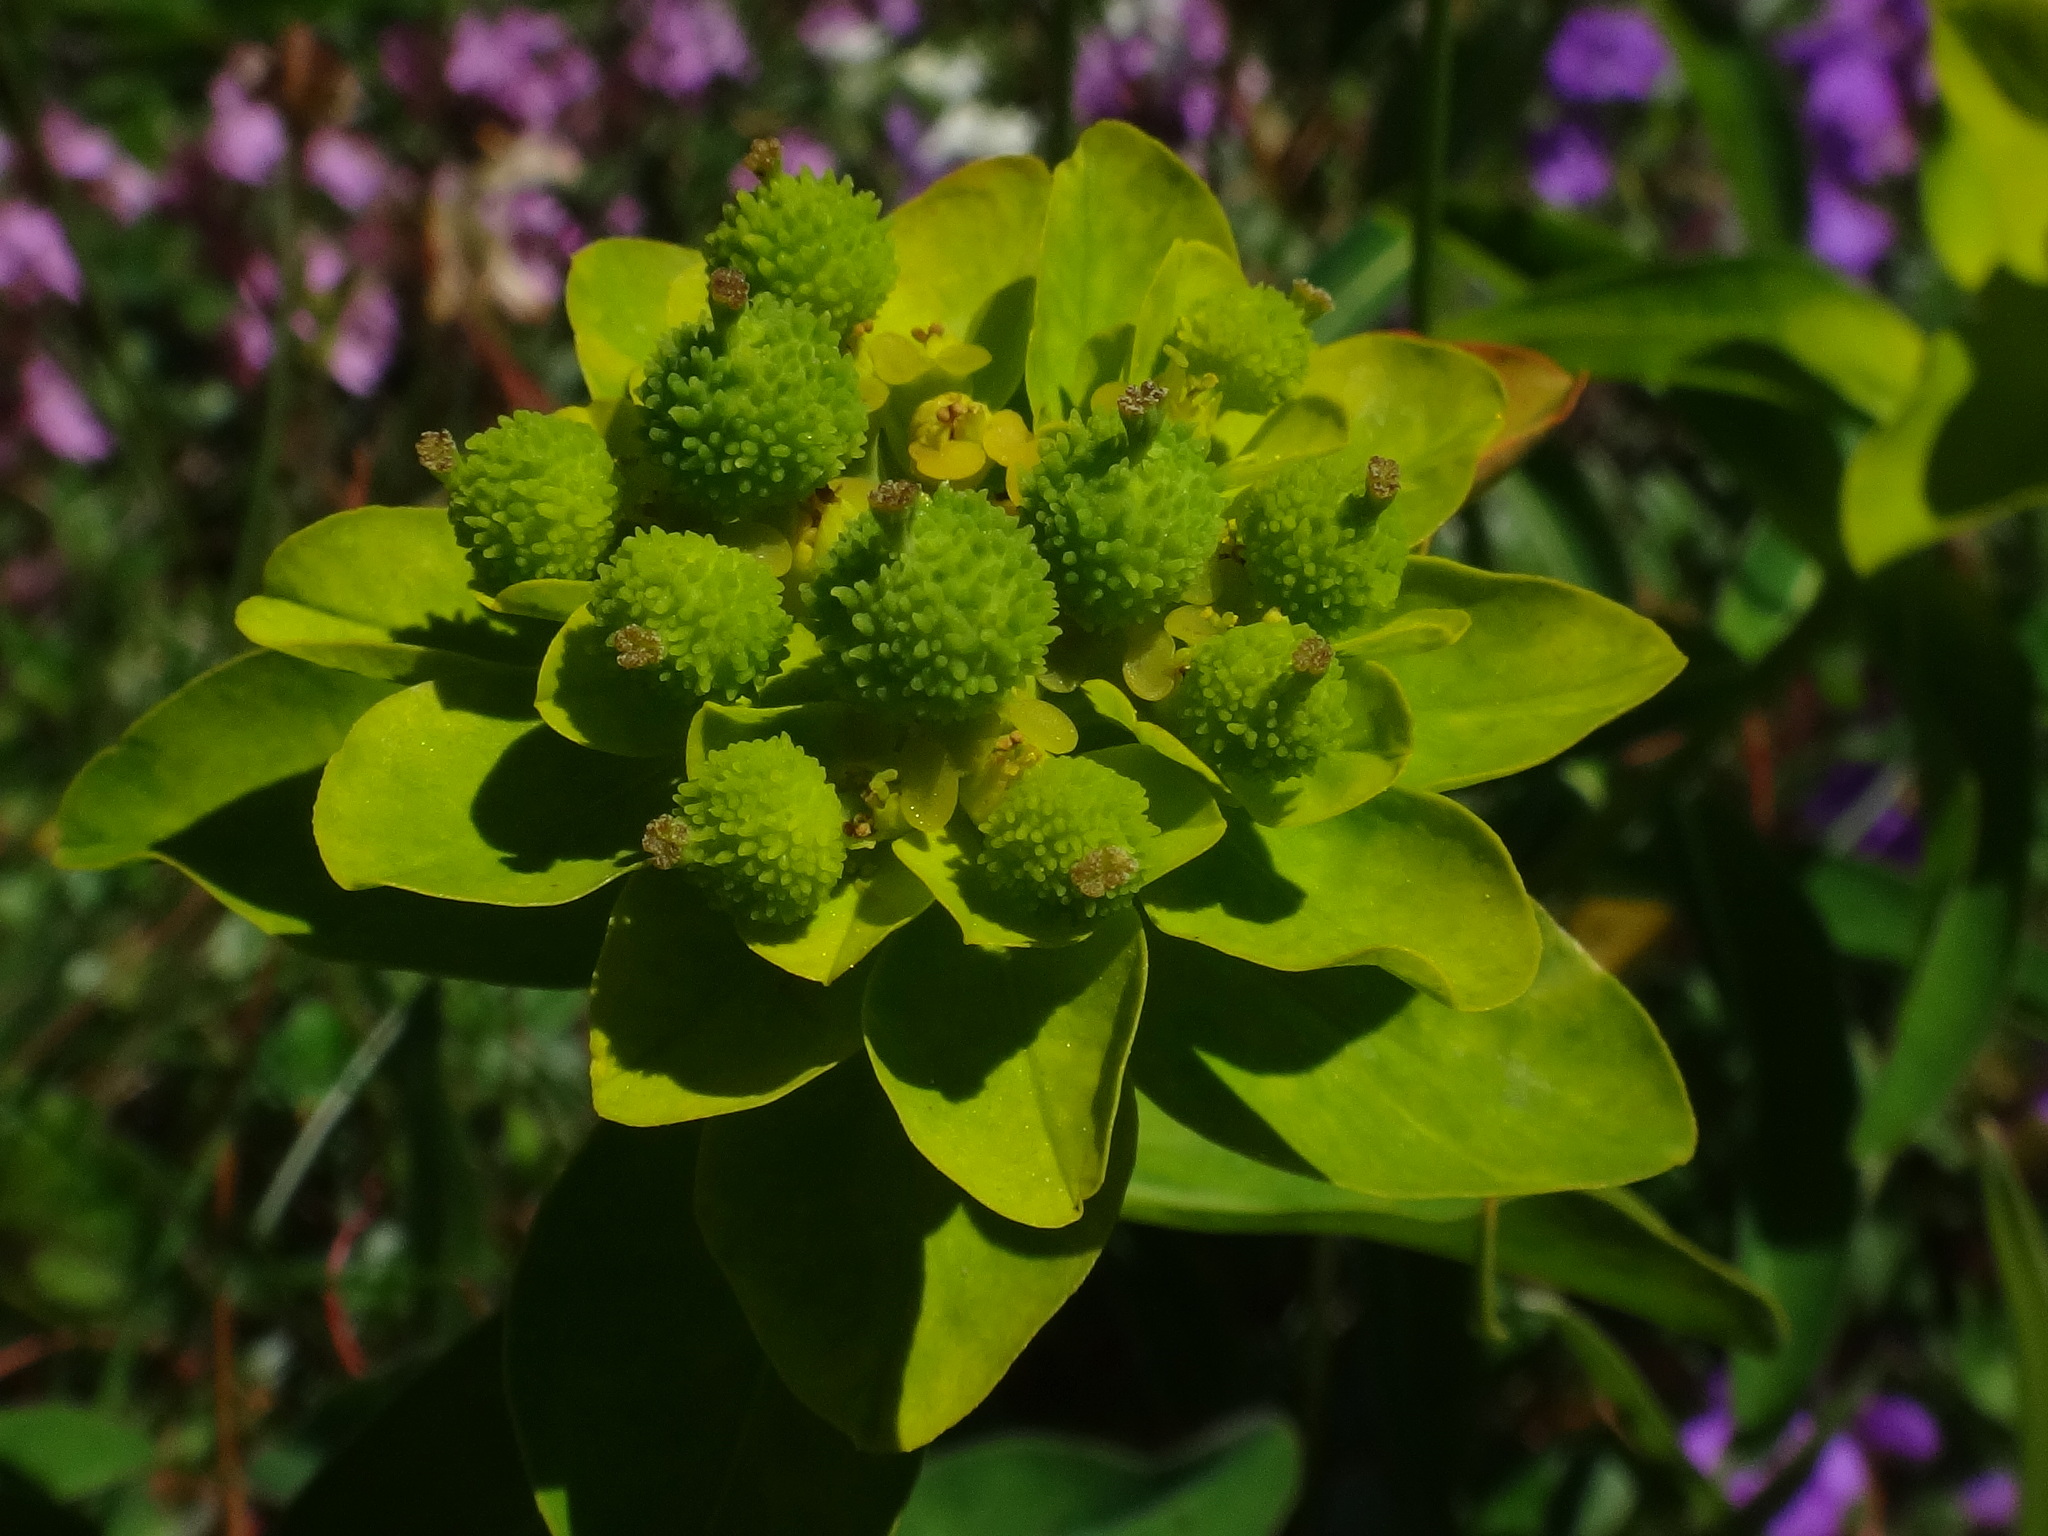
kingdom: Plantae
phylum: Tracheophyta
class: Magnoliopsida
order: Malpighiales
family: Euphorbiaceae
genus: Euphorbia
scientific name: Euphorbia verrucosa
